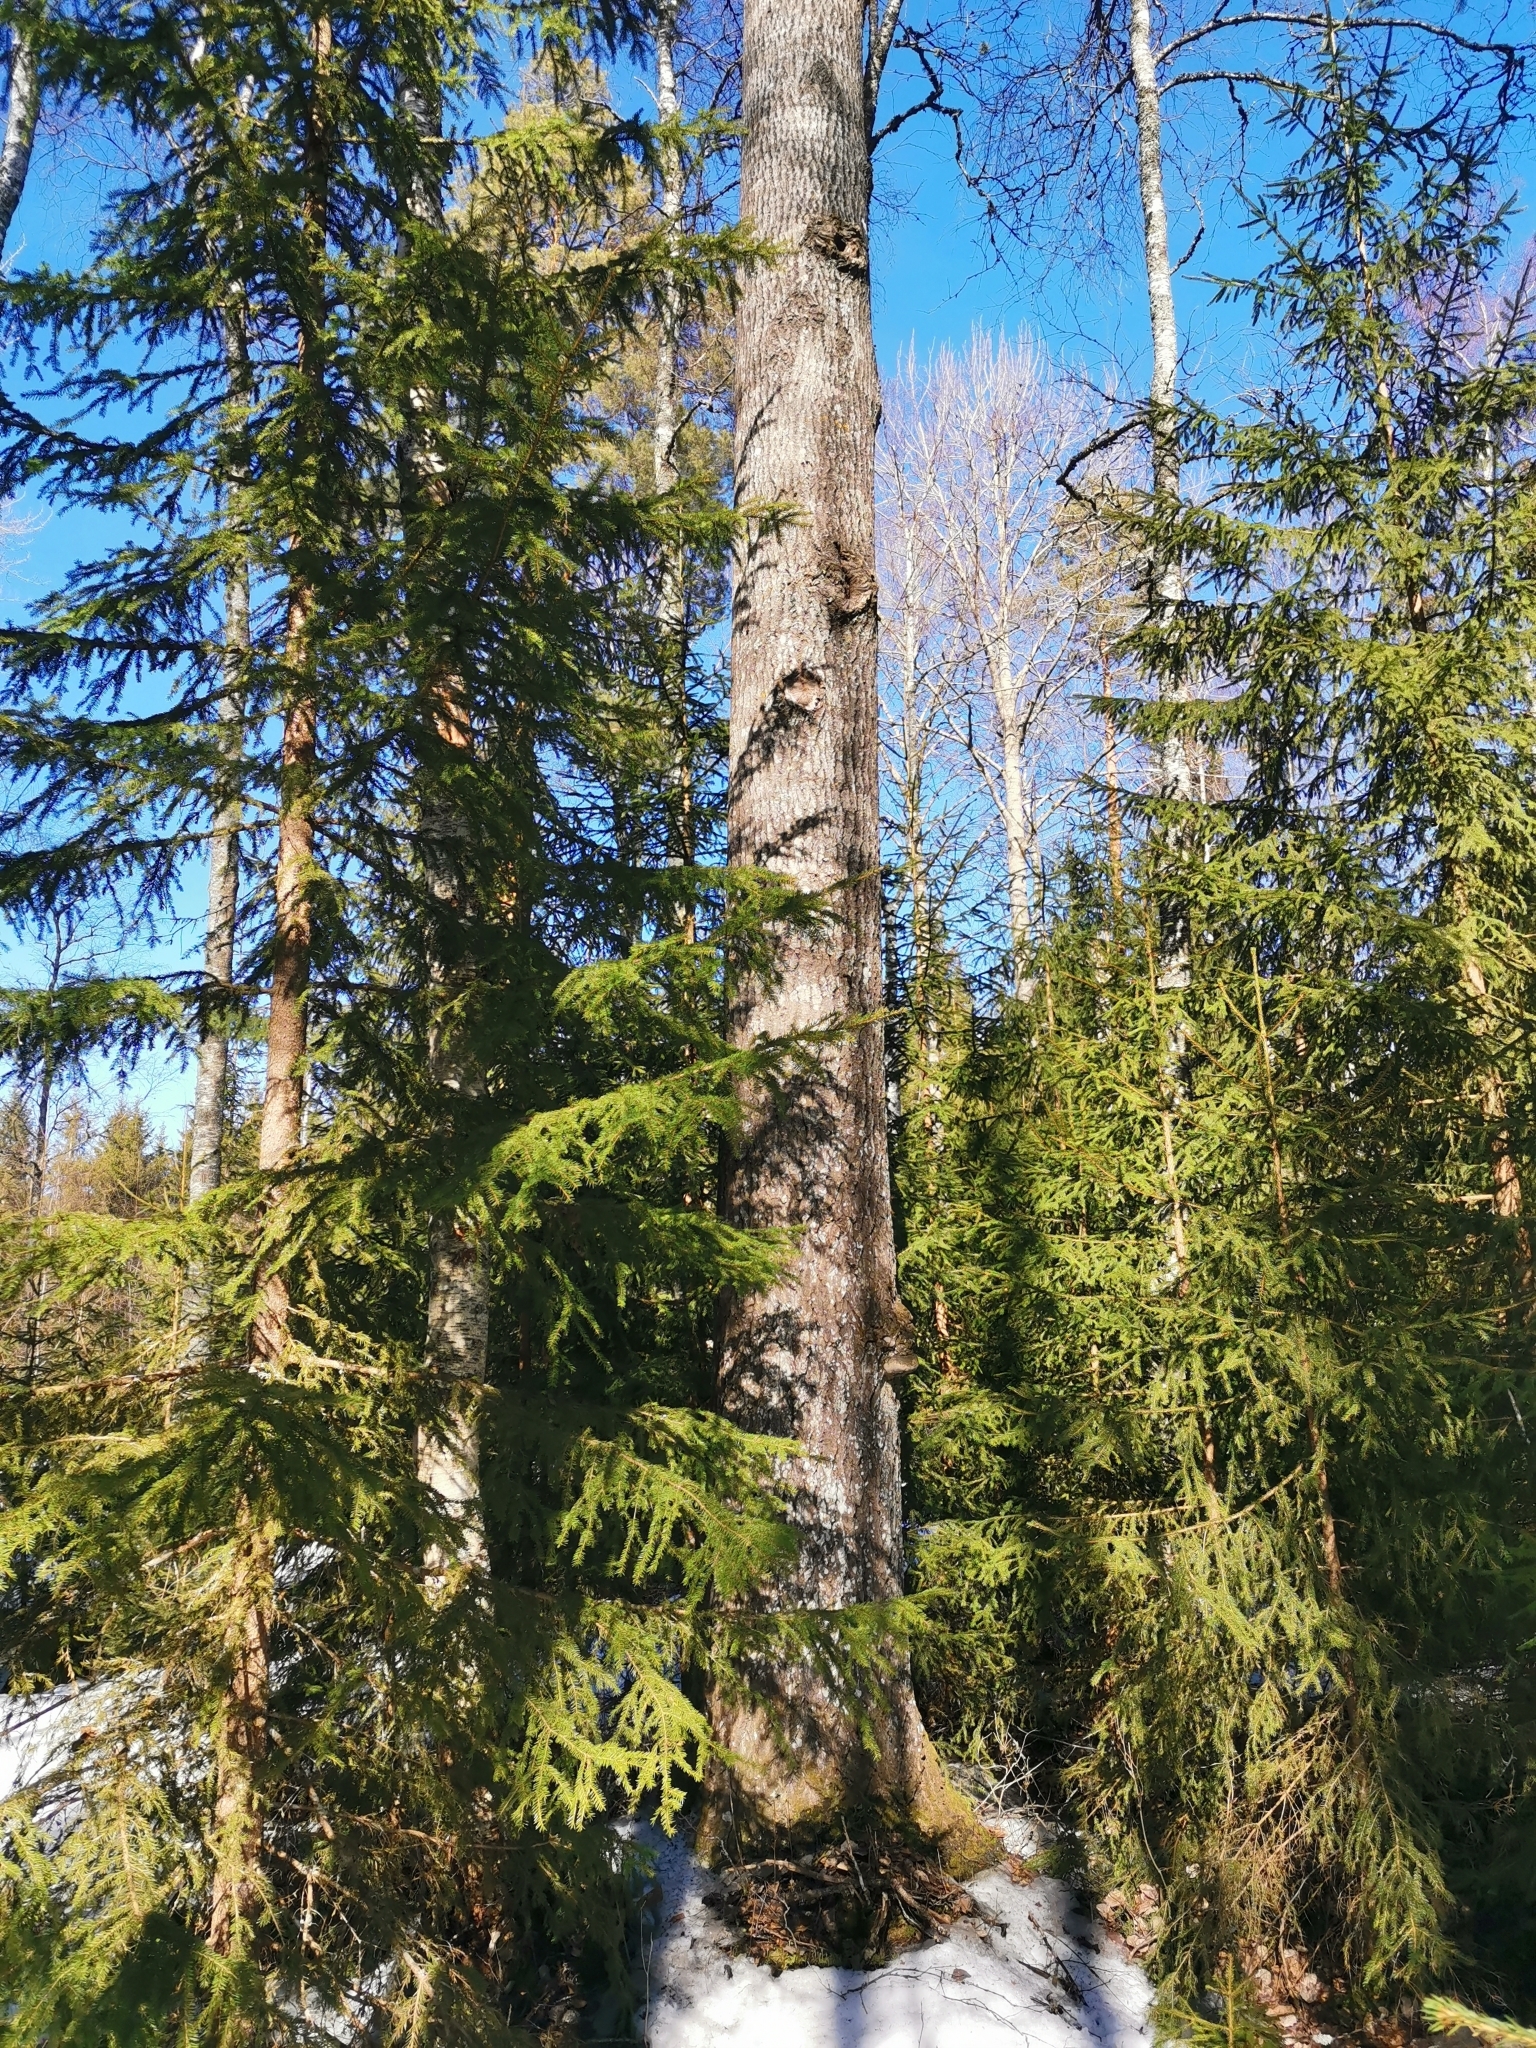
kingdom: Animalia
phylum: Chordata
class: Mammalia
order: Rodentia
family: Sciuridae
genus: Pteromys
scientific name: Pteromys volans
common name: Siberian flying squirrel
